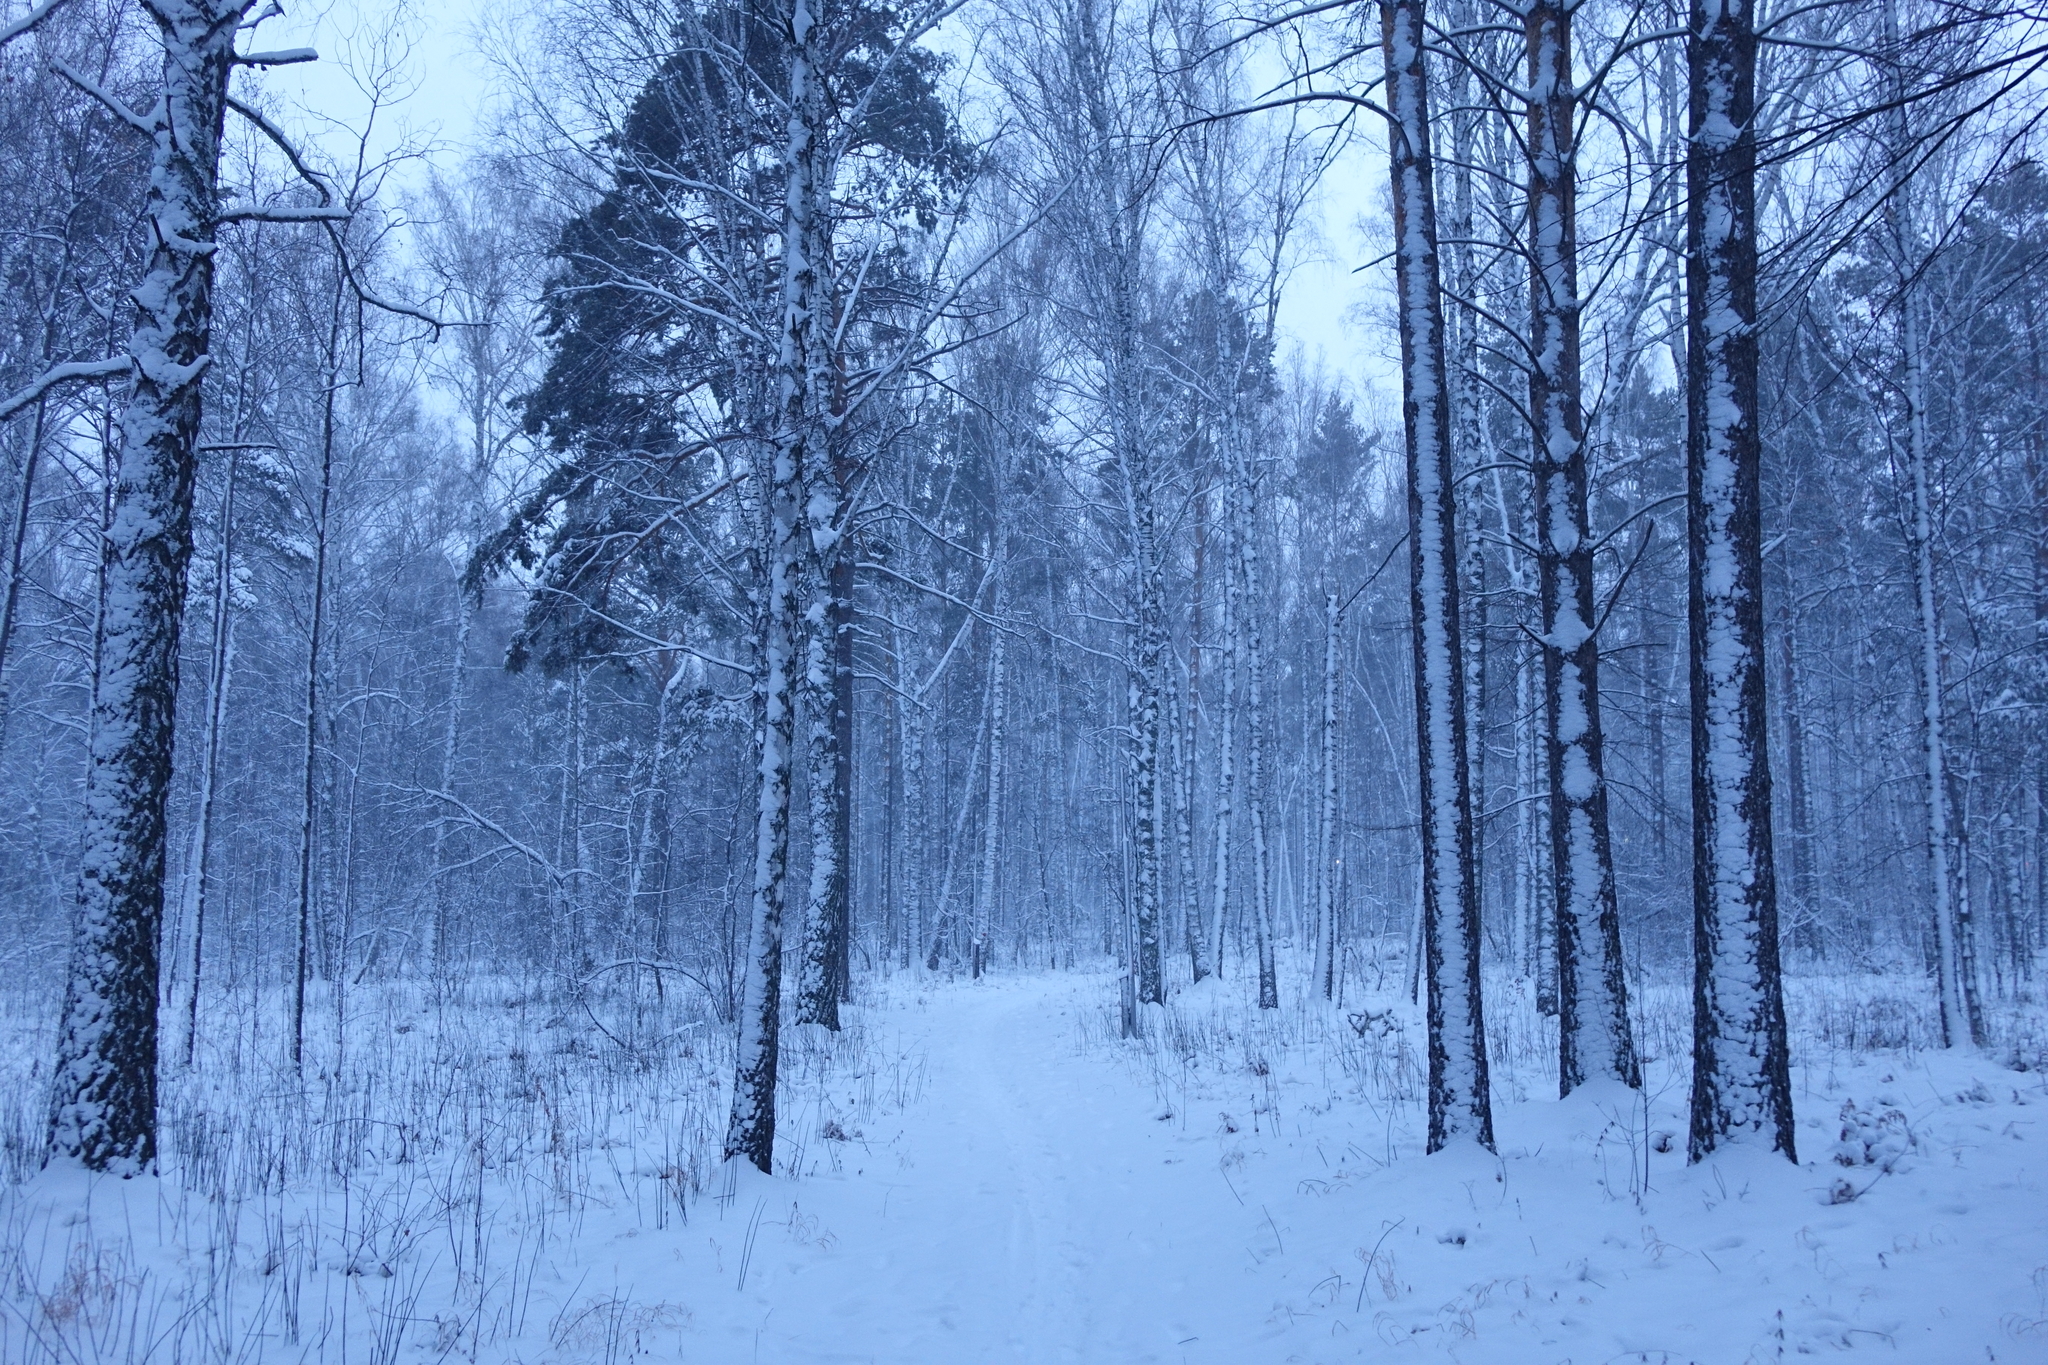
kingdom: Plantae
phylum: Tracheophyta
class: Pinopsida
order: Pinales
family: Pinaceae
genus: Pinus
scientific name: Pinus sylvestris
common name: Scots pine
